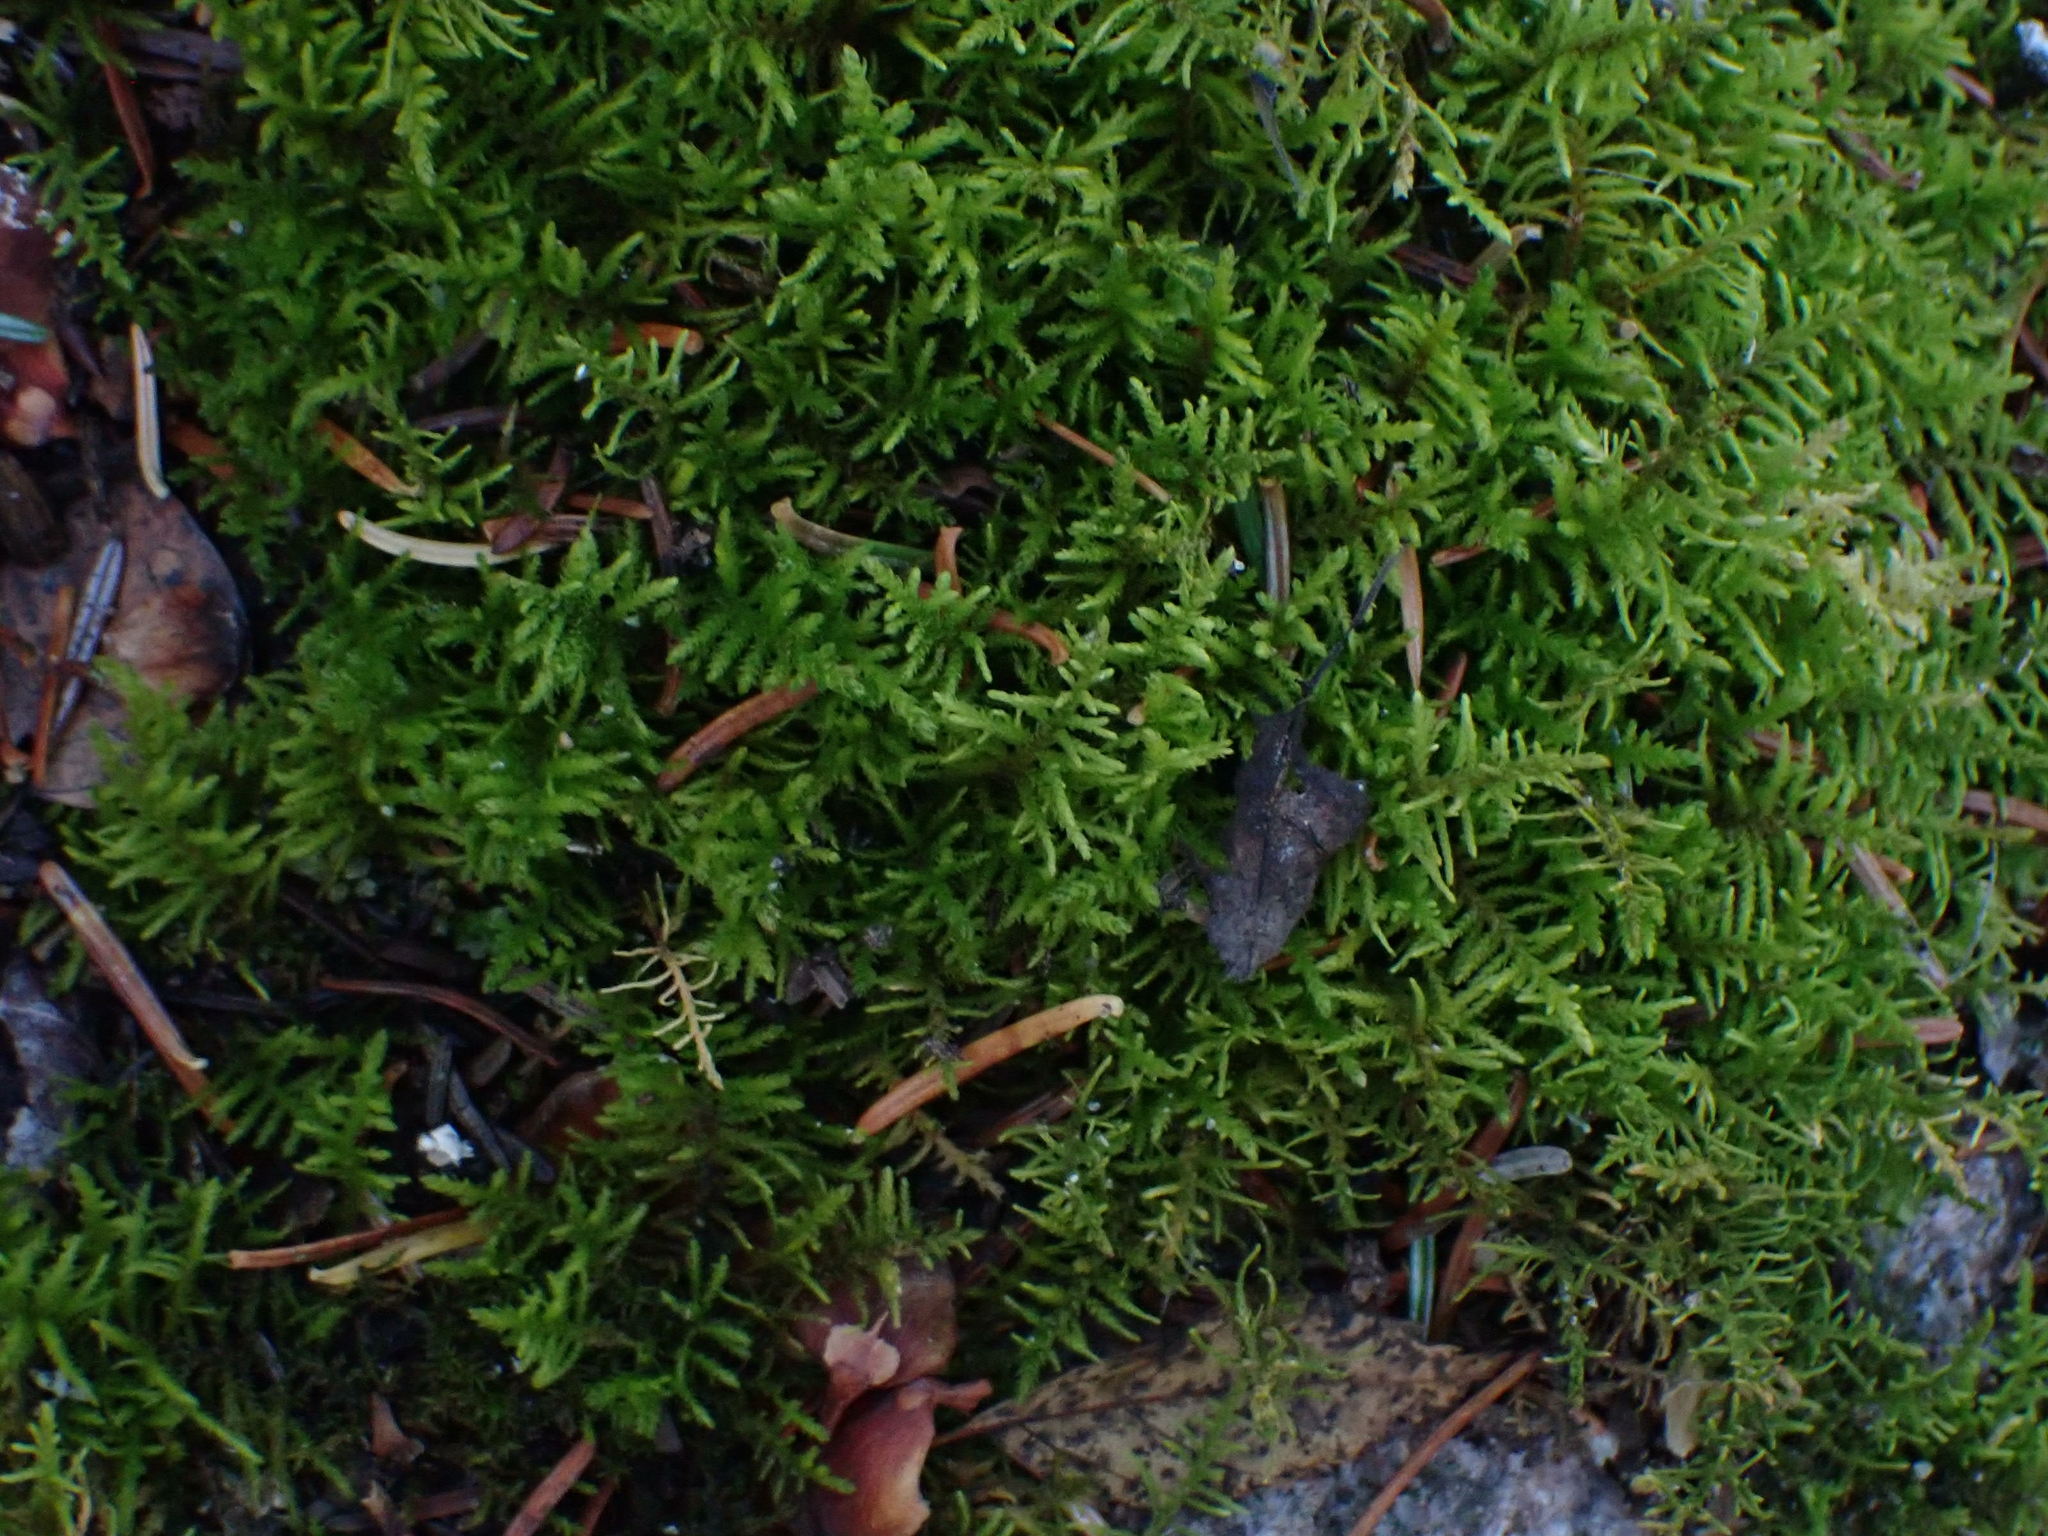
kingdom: Plantae
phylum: Bryophyta
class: Bryopsida
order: Hypnales
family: Thuidiaceae
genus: Abietinella
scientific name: Abietinella abietina
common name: Wiry fern moss
